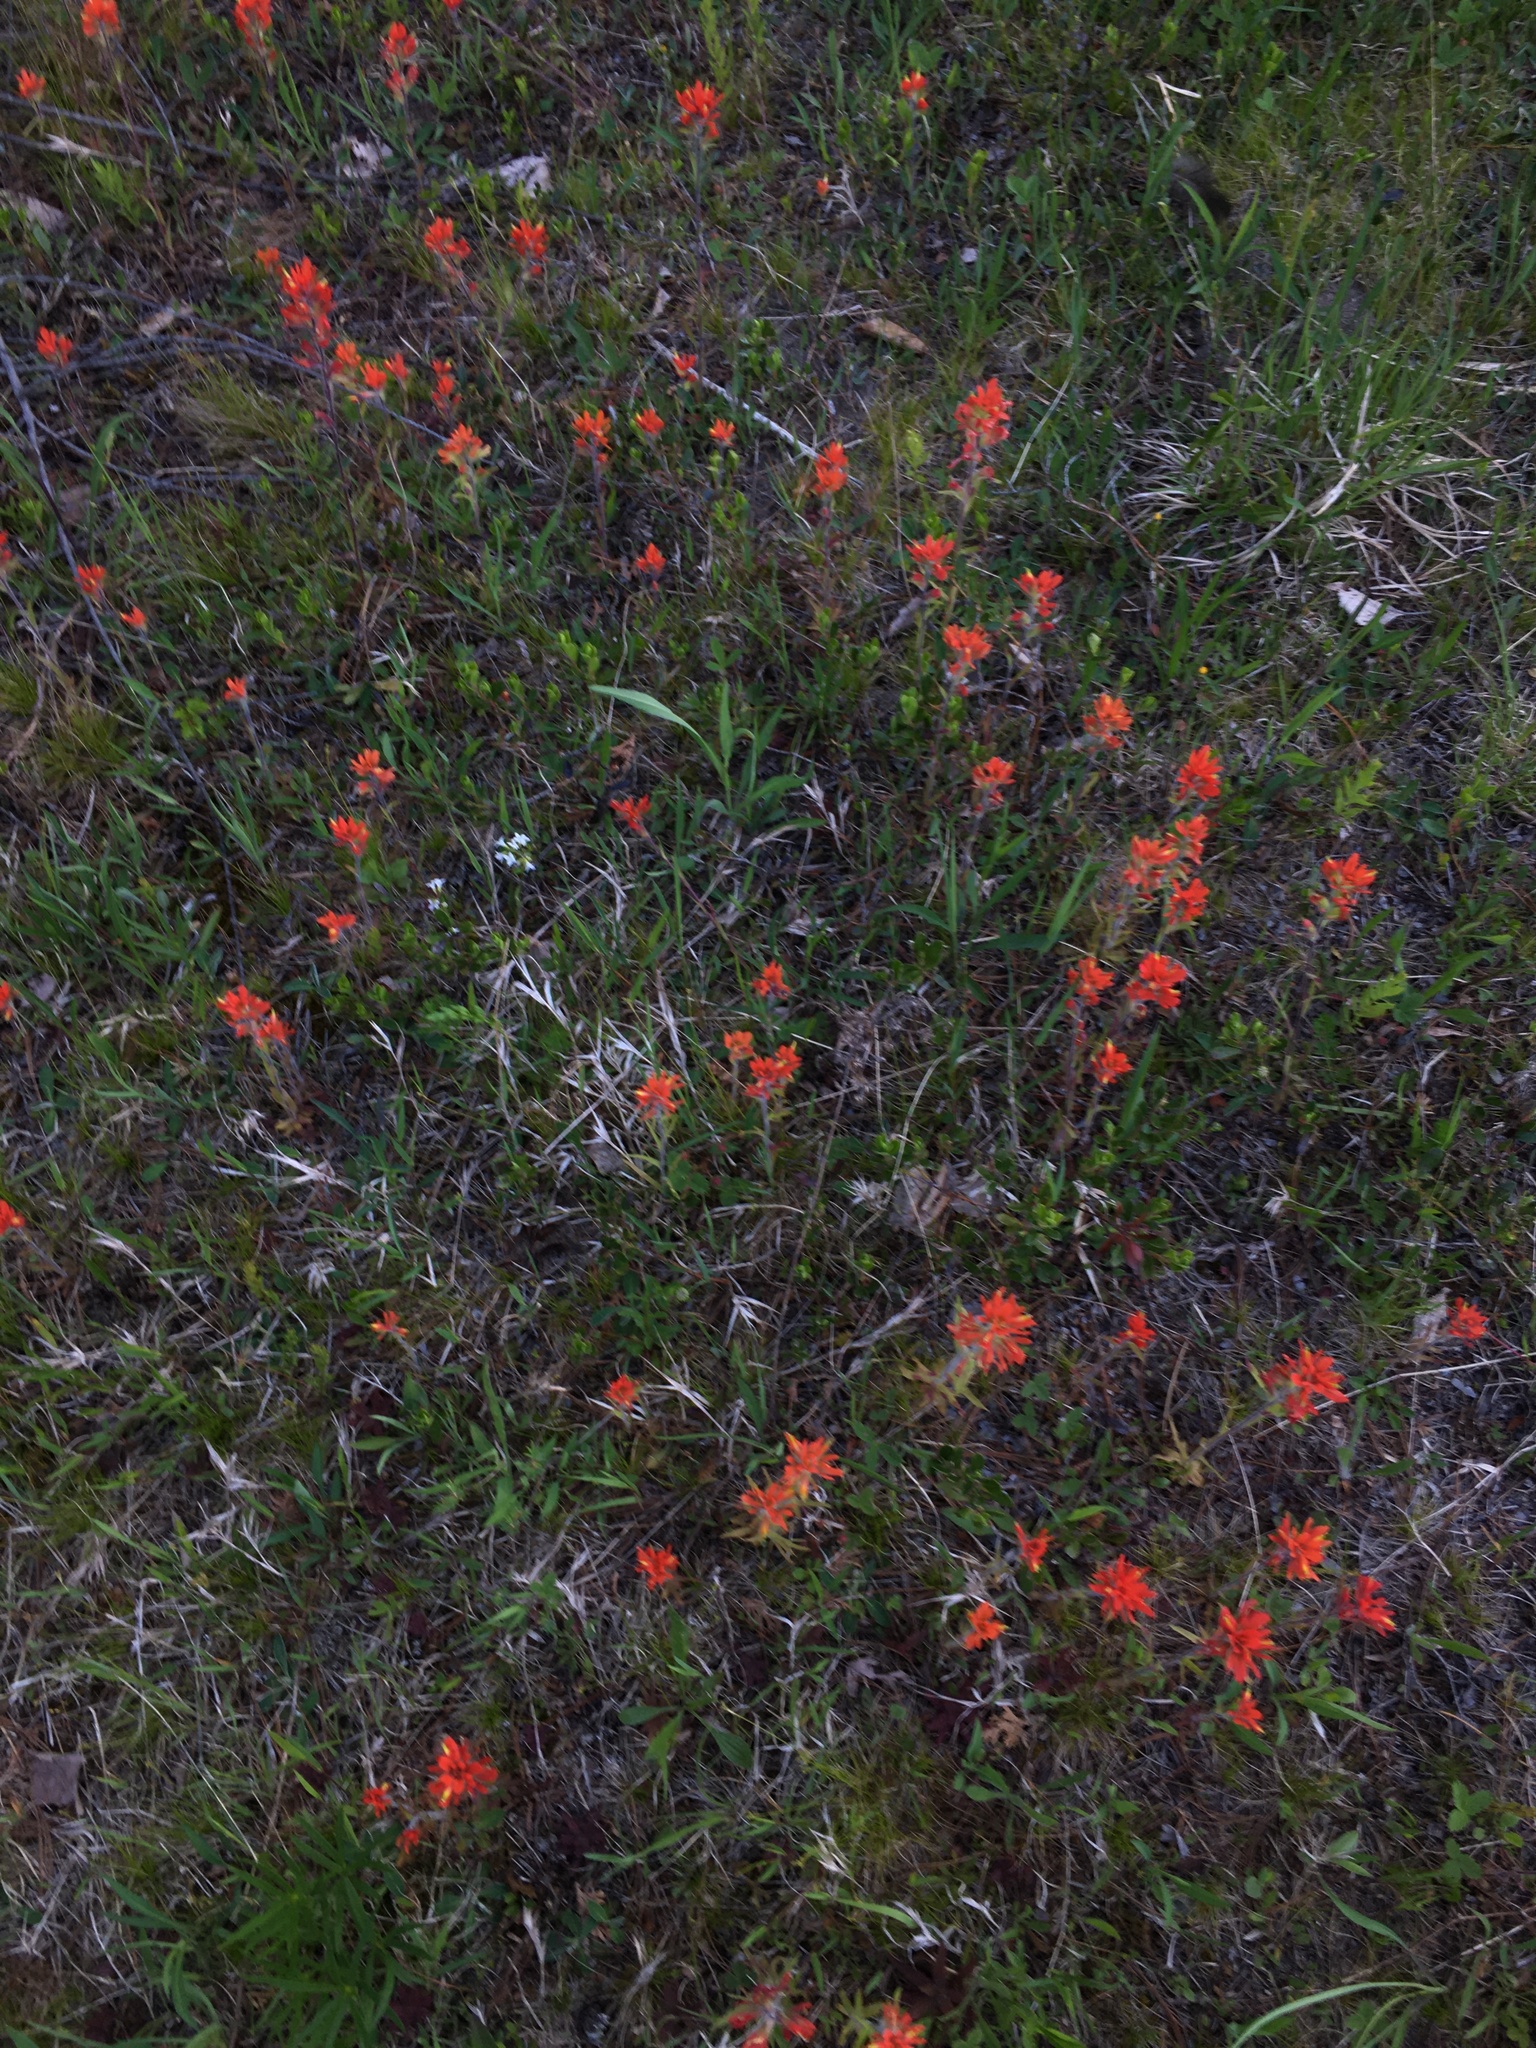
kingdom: Plantae
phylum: Tracheophyta
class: Magnoliopsida
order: Lamiales
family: Orobanchaceae
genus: Castilleja
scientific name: Castilleja coccinea
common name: Scarlet paintbrush
